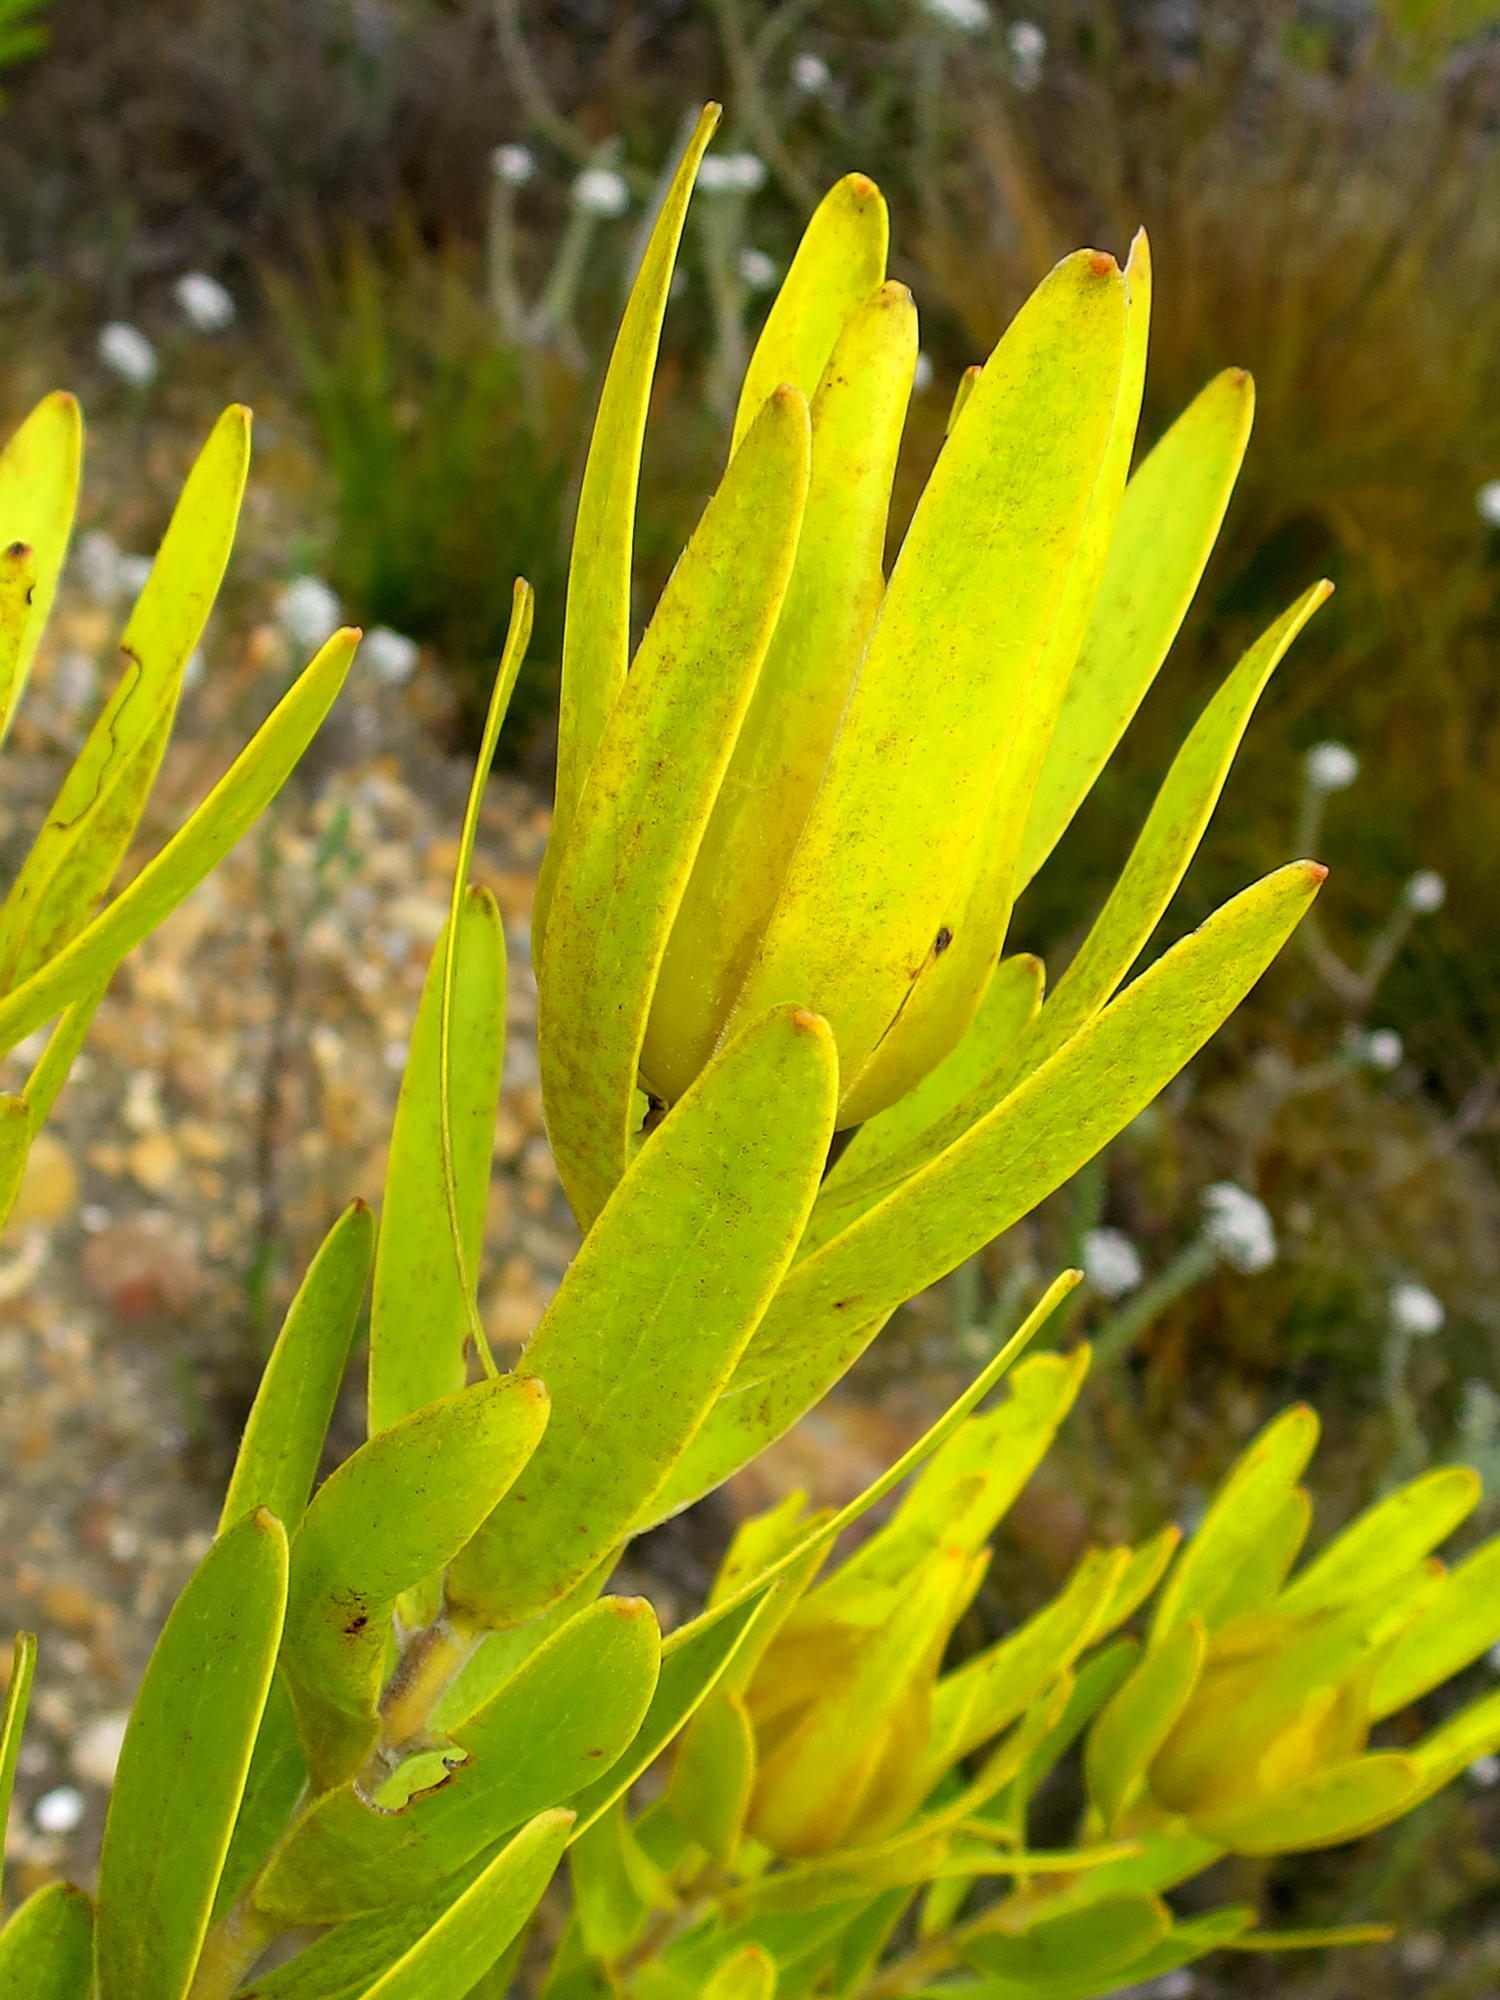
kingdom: Animalia
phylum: Arthropoda
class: Insecta
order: Hymenoptera
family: Apidae
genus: Apis
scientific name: Apis mellifera
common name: Honey bee
